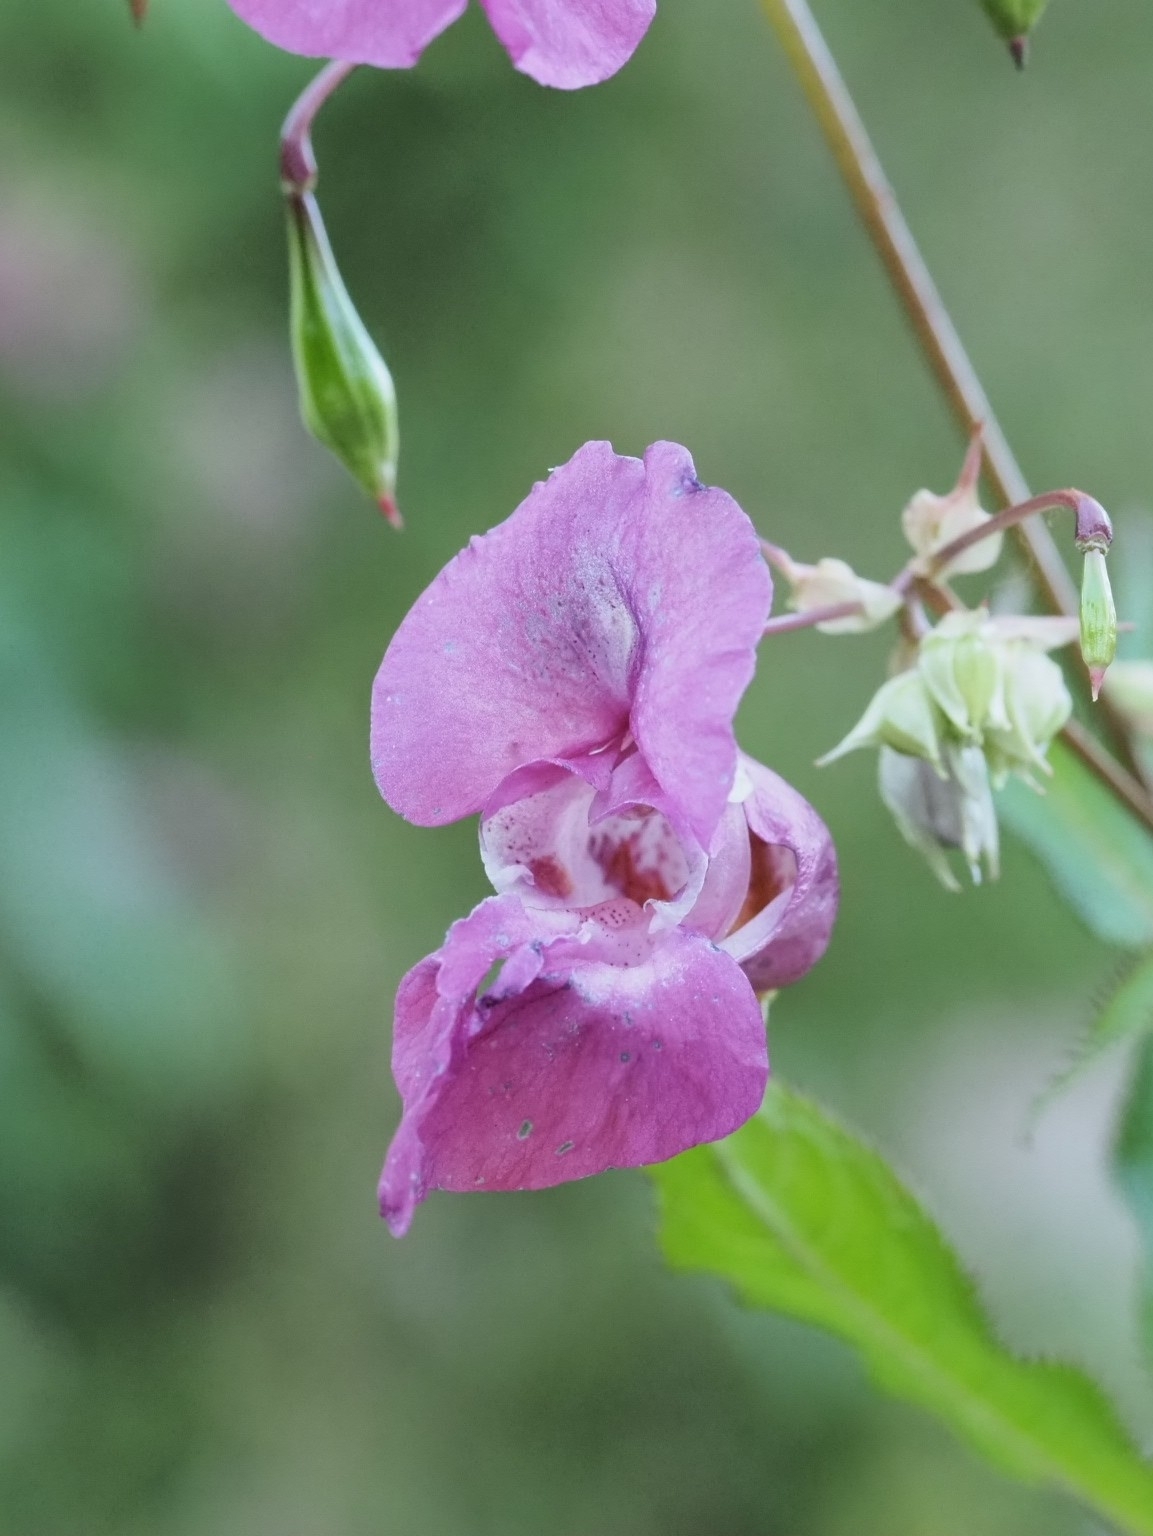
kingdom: Plantae
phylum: Tracheophyta
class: Magnoliopsida
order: Ericales
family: Balsaminaceae
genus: Impatiens
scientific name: Impatiens glandulifera
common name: Himalayan balsam
